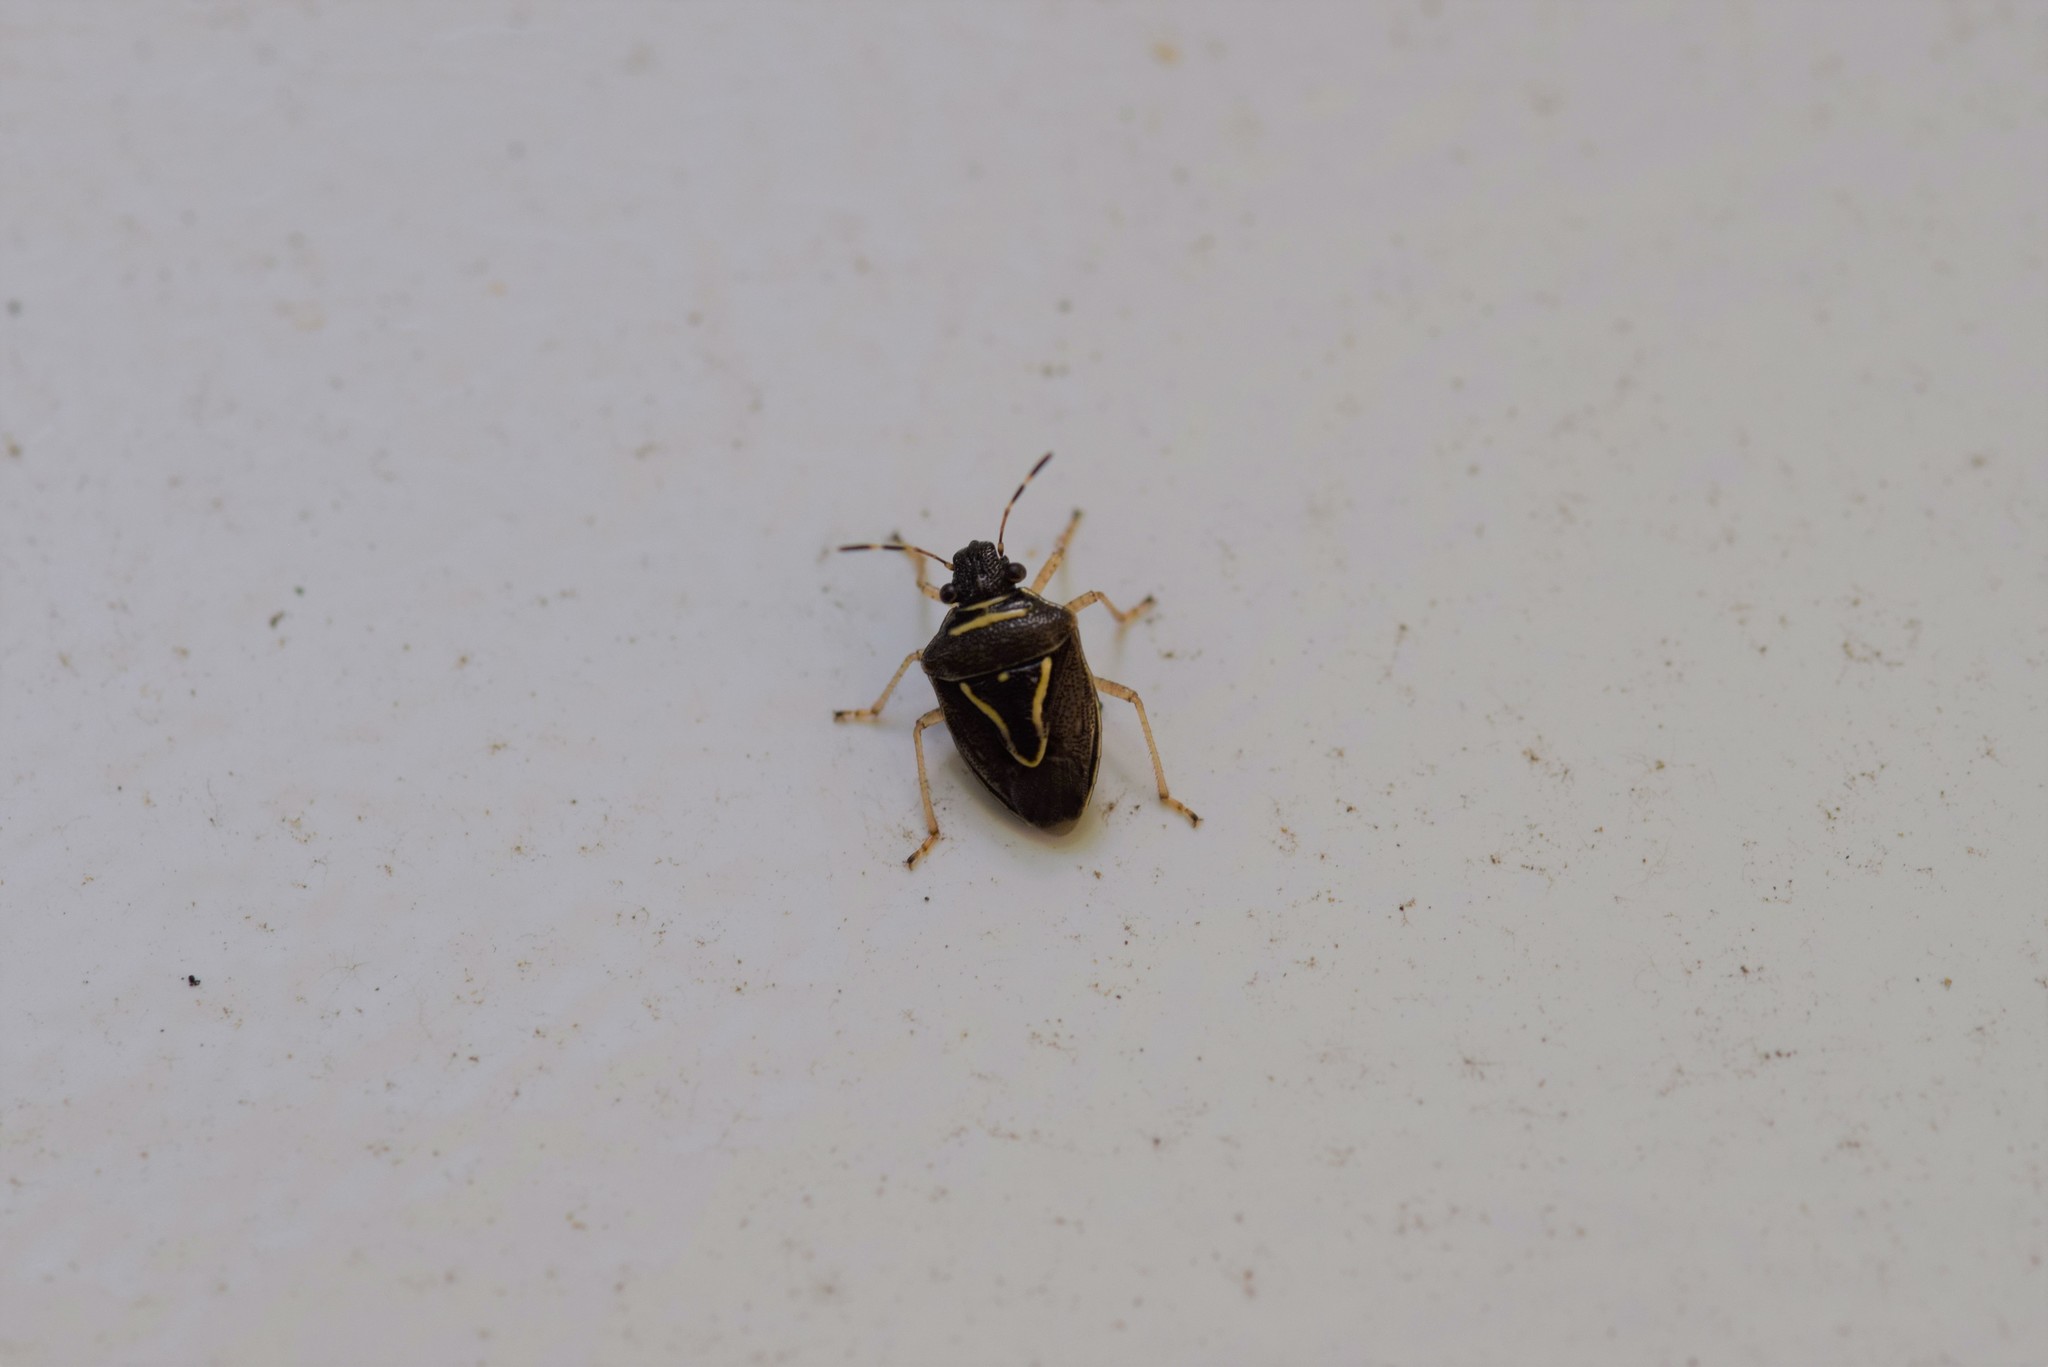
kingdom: Animalia
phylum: Arthropoda
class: Insecta
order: Hemiptera
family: Pentatomidae
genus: Mormidea
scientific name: Mormidea lugens
